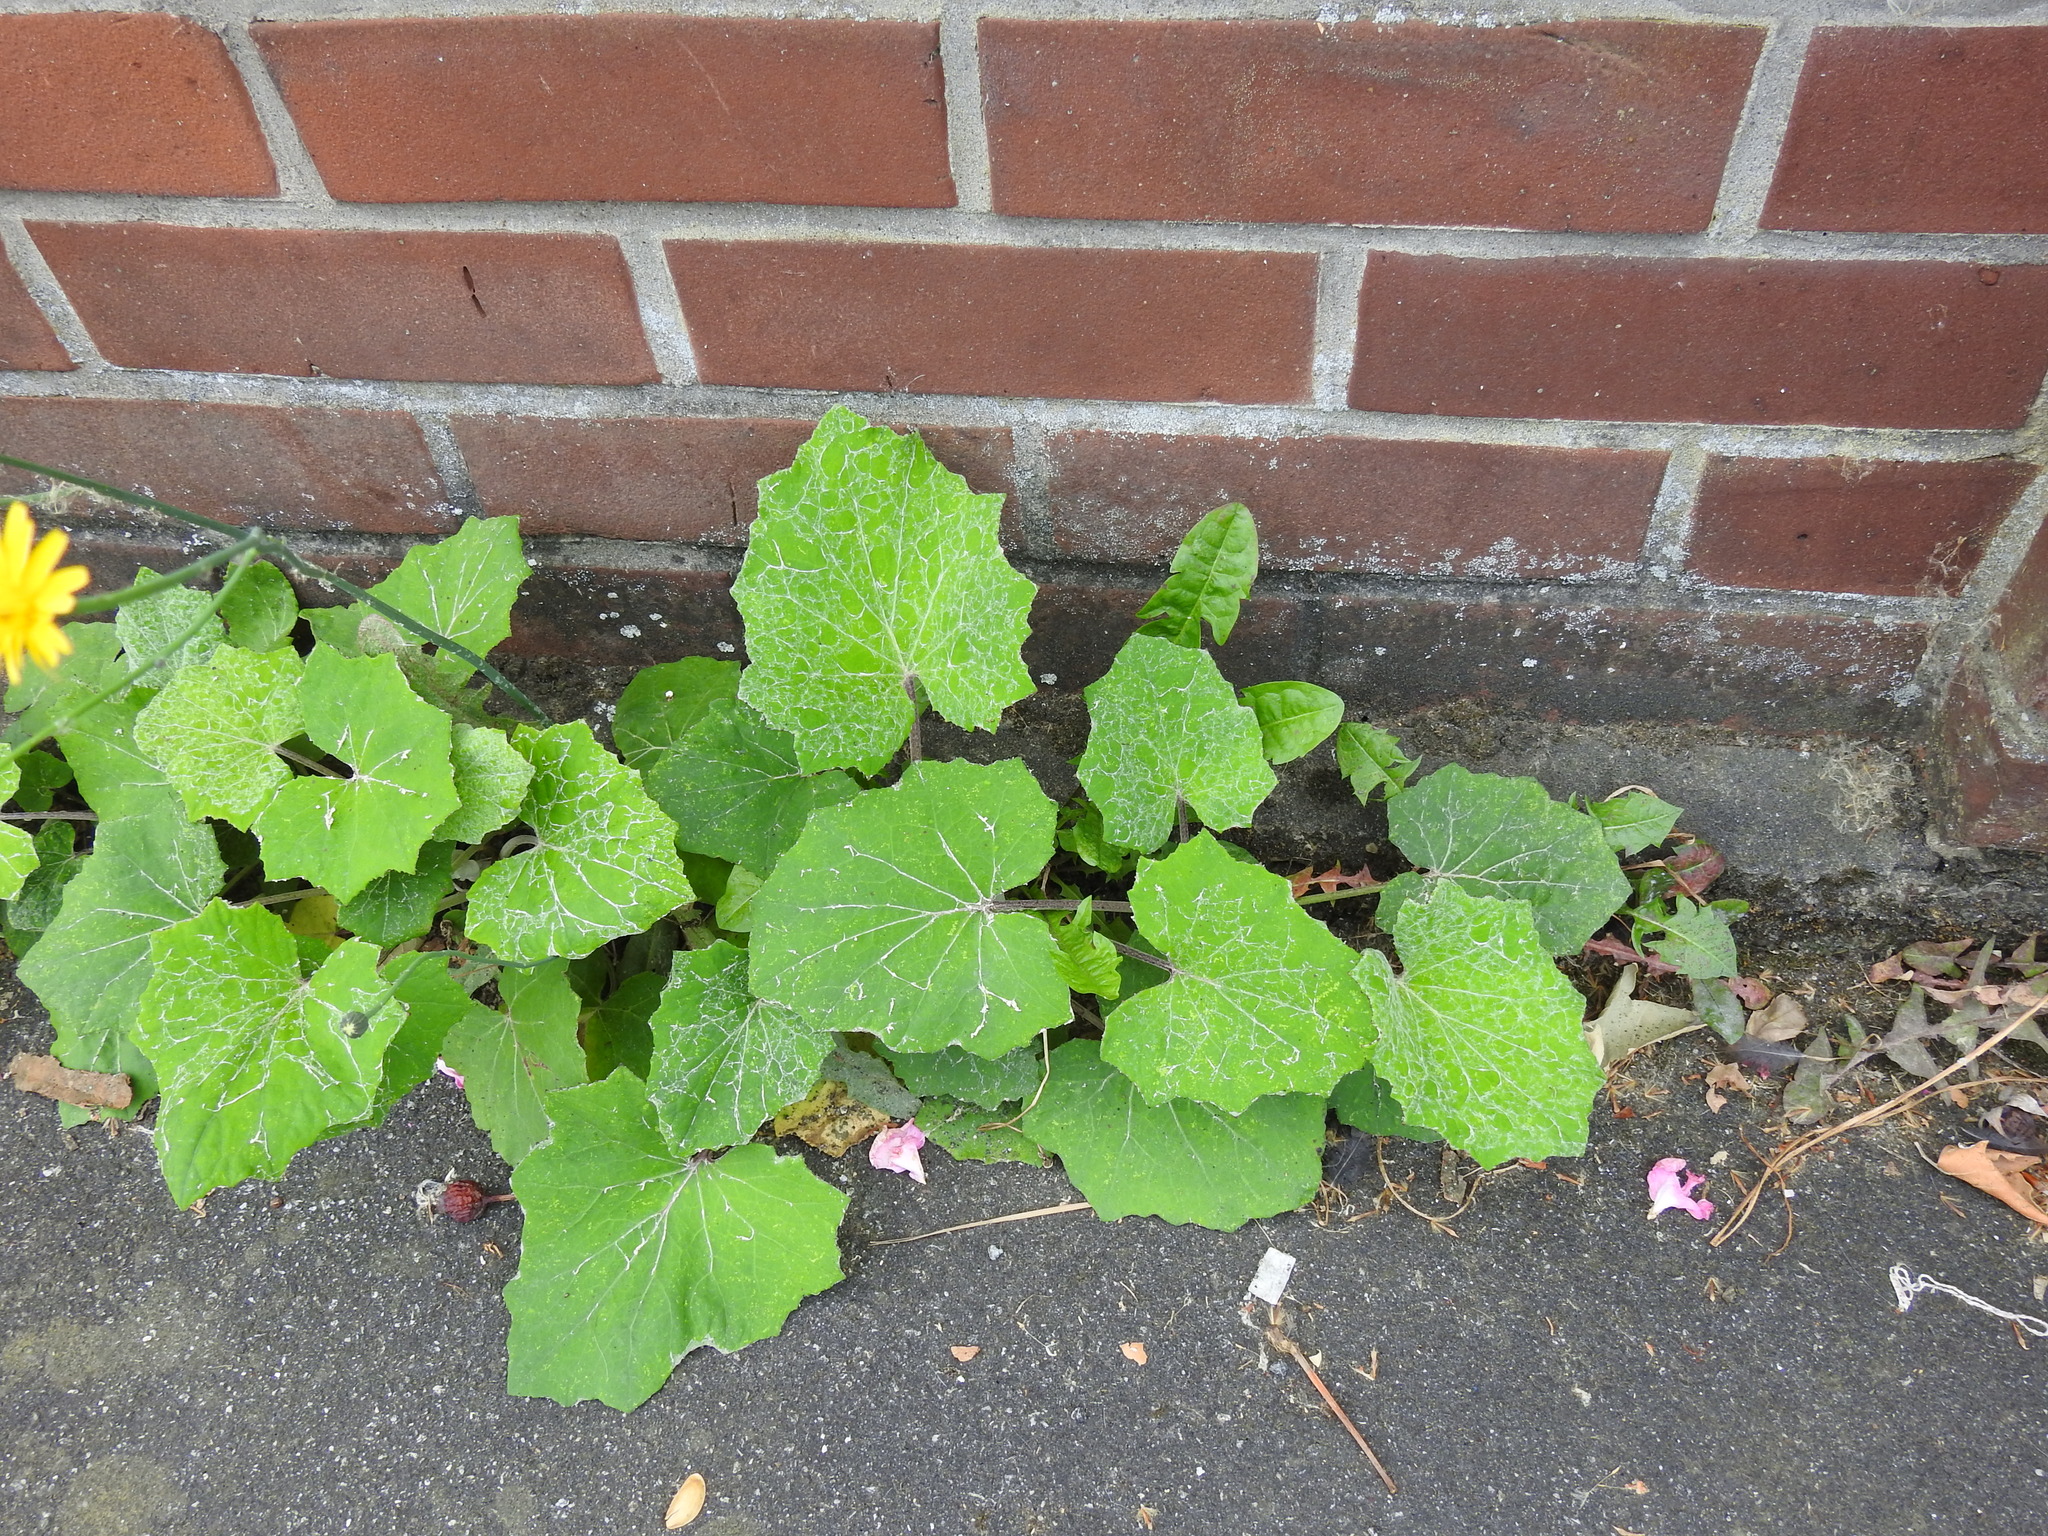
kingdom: Plantae
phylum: Tracheophyta
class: Magnoliopsida
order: Asterales
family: Asteraceae
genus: Tussilago
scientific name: Tussilago farfara
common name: Coltsfoot
